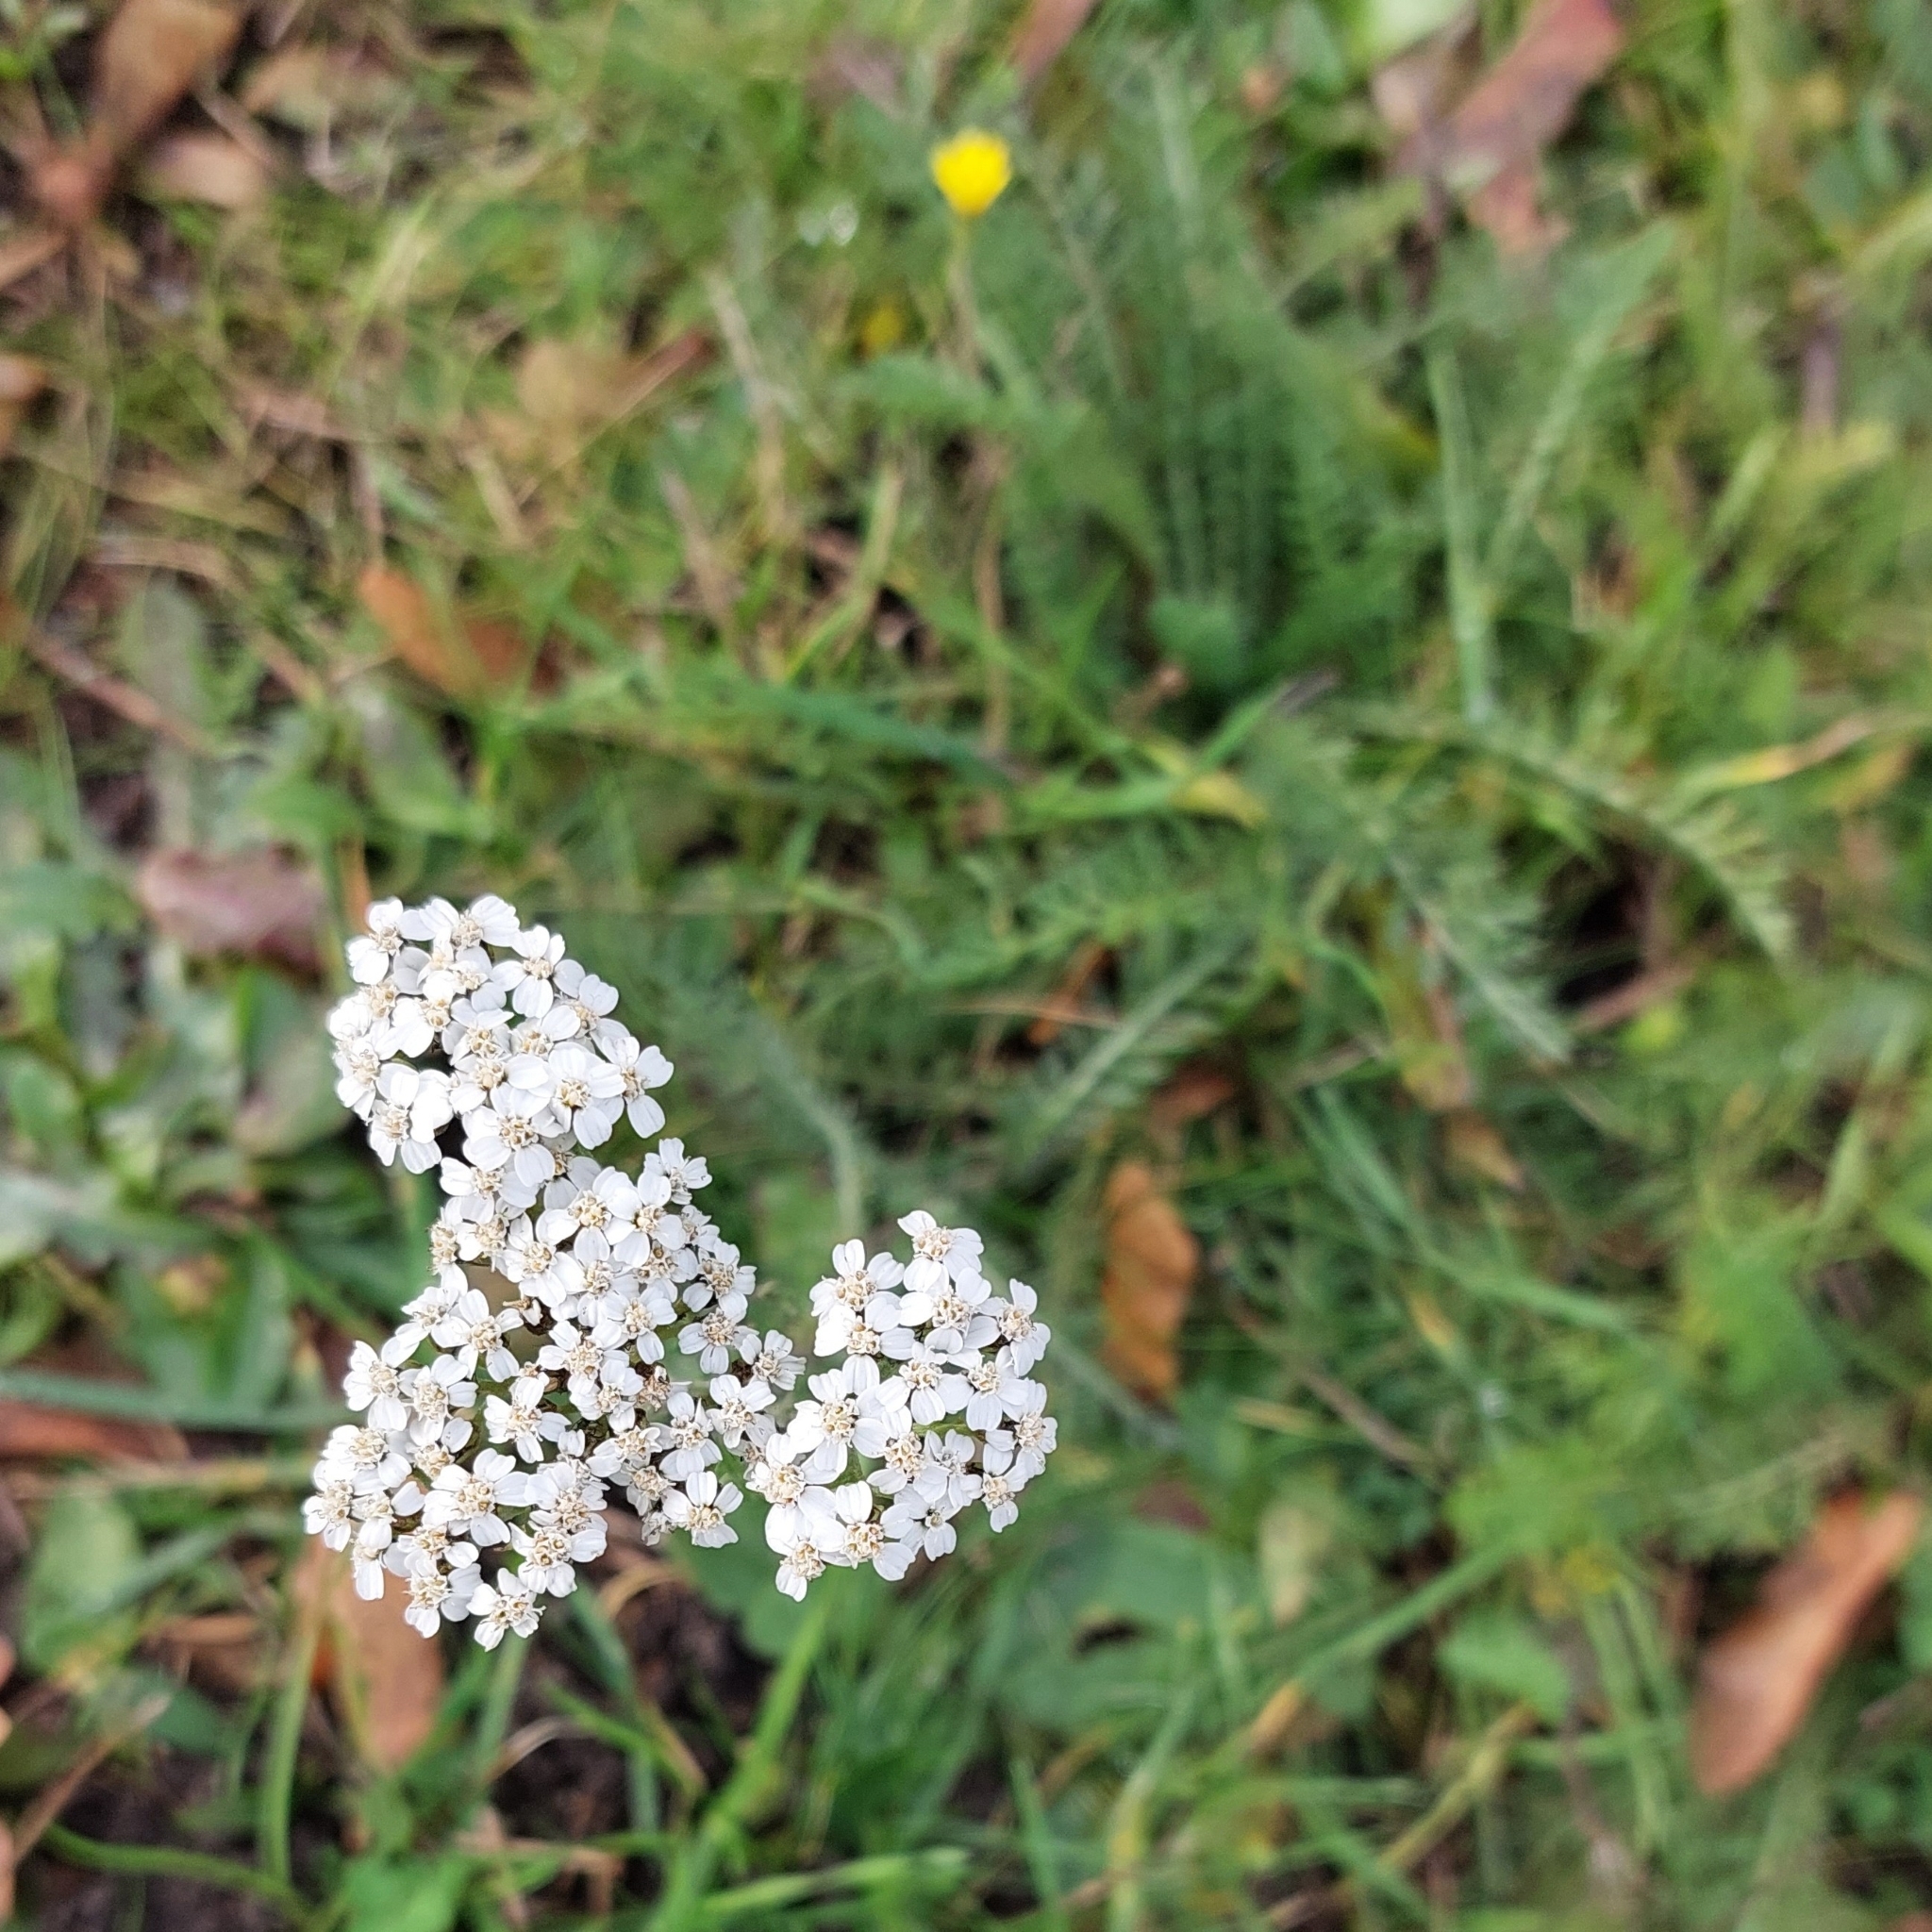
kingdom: Plantae
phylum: Tracheophyta
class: Magnoliopsida
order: Asterales
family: Asteraceae
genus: Achillea
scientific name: Achillea millefolium
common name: Yarrow
